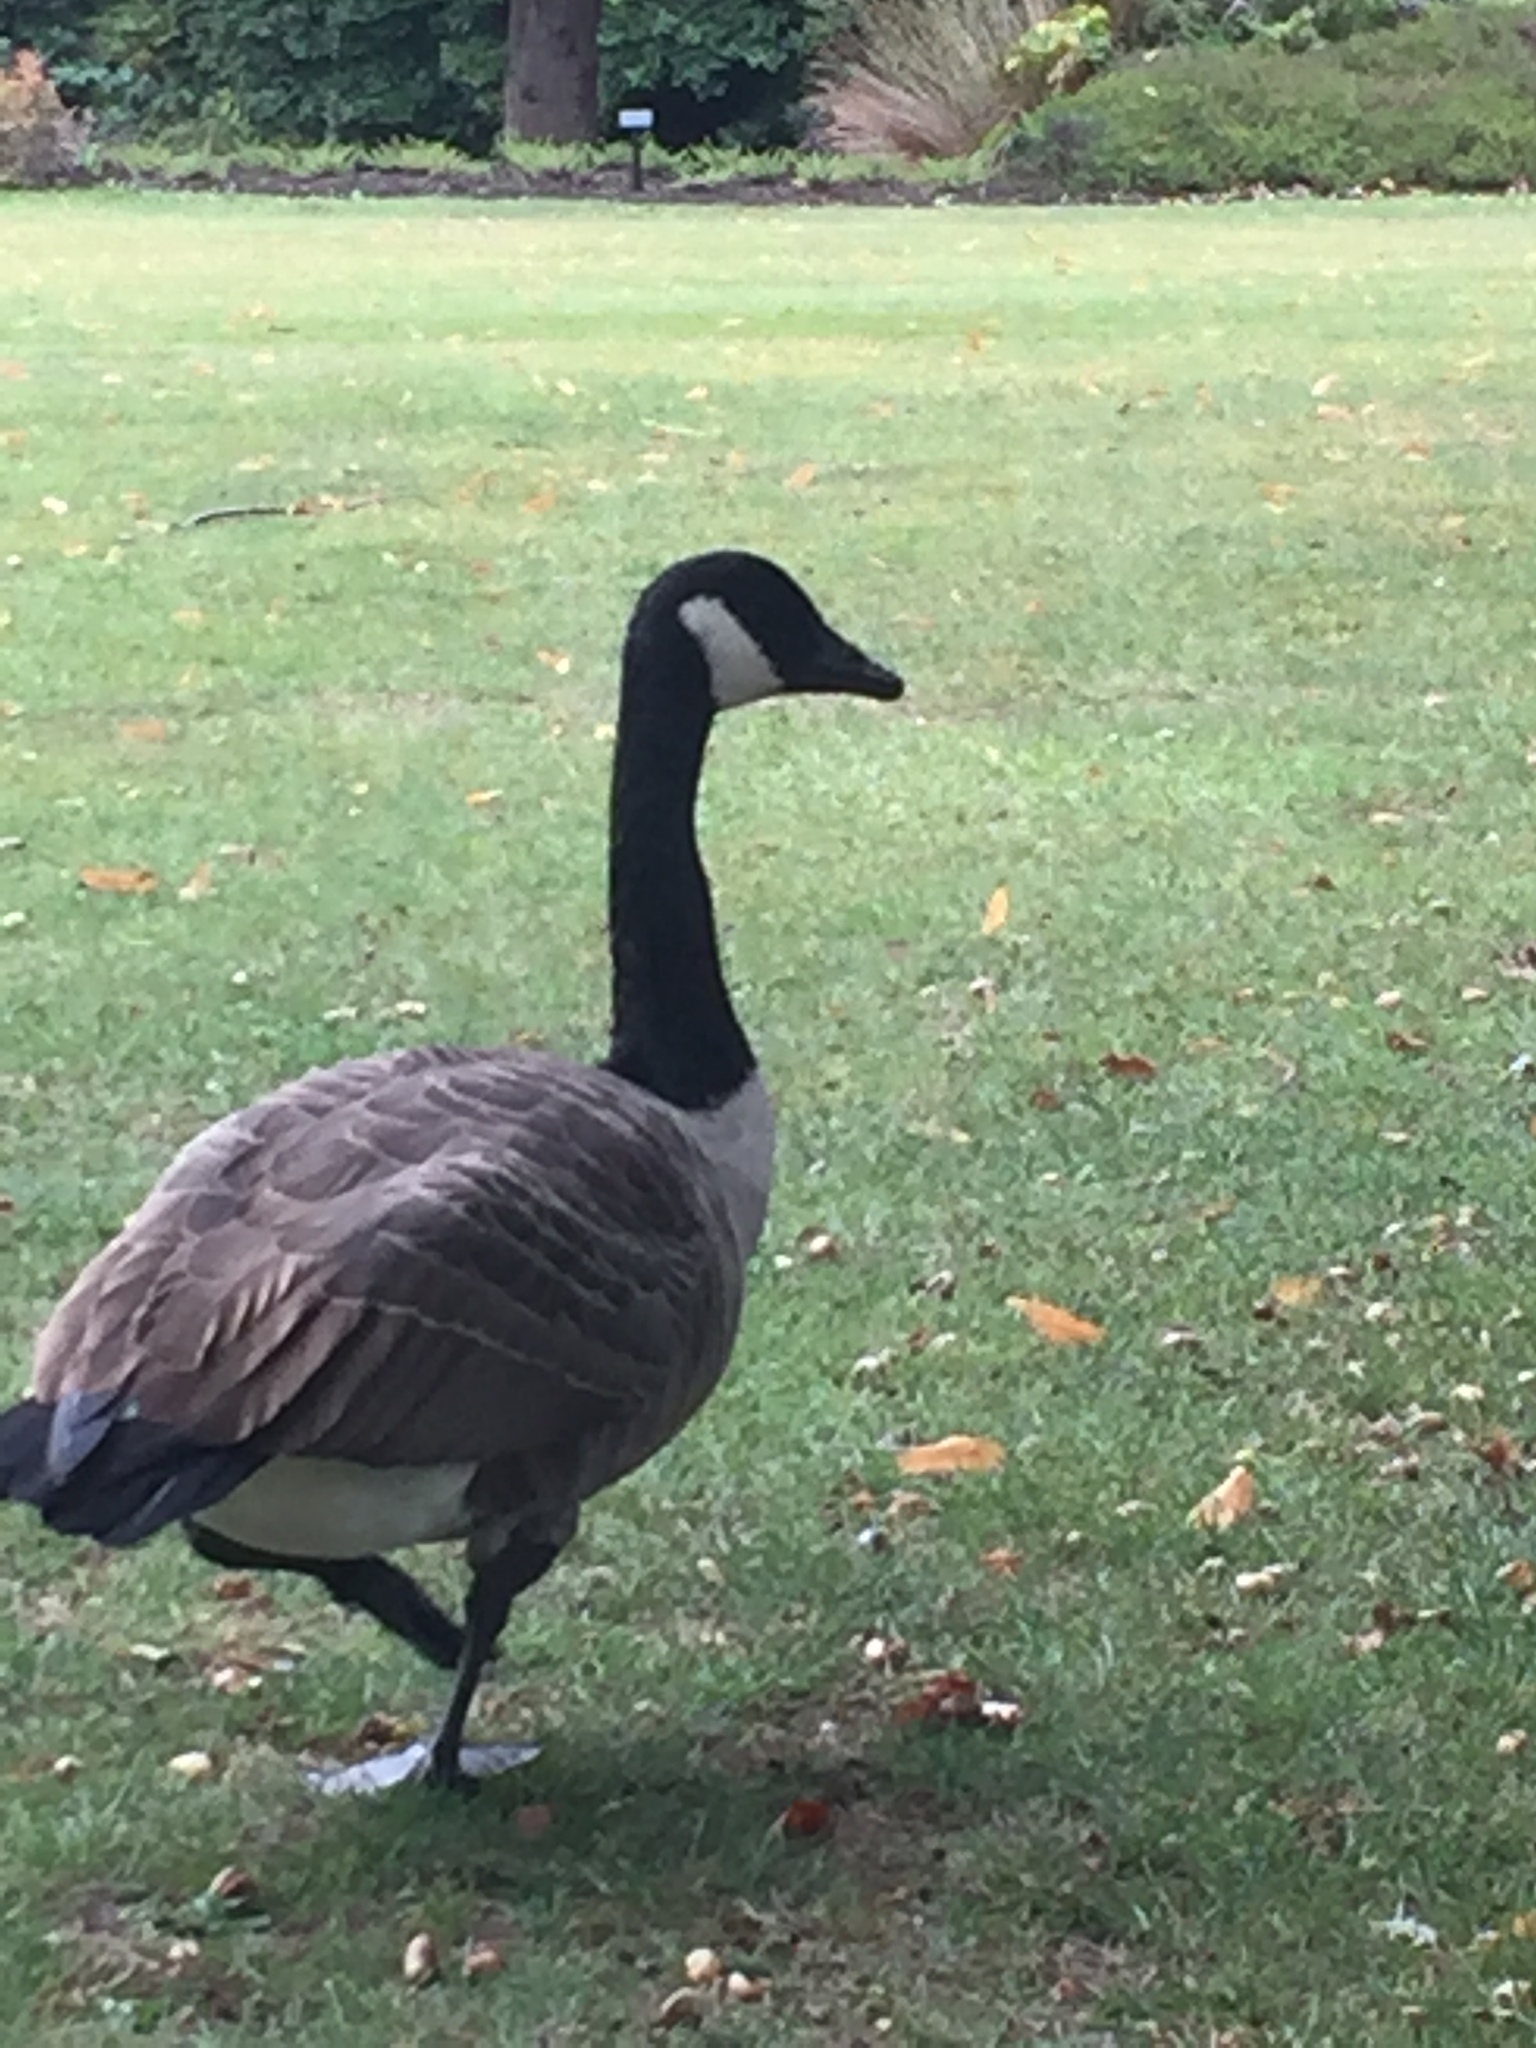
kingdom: Animalia
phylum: Chordata
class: Aves
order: Anseriformes
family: Anatidae
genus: Branta
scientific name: Branta canadensis
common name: Canada goose
